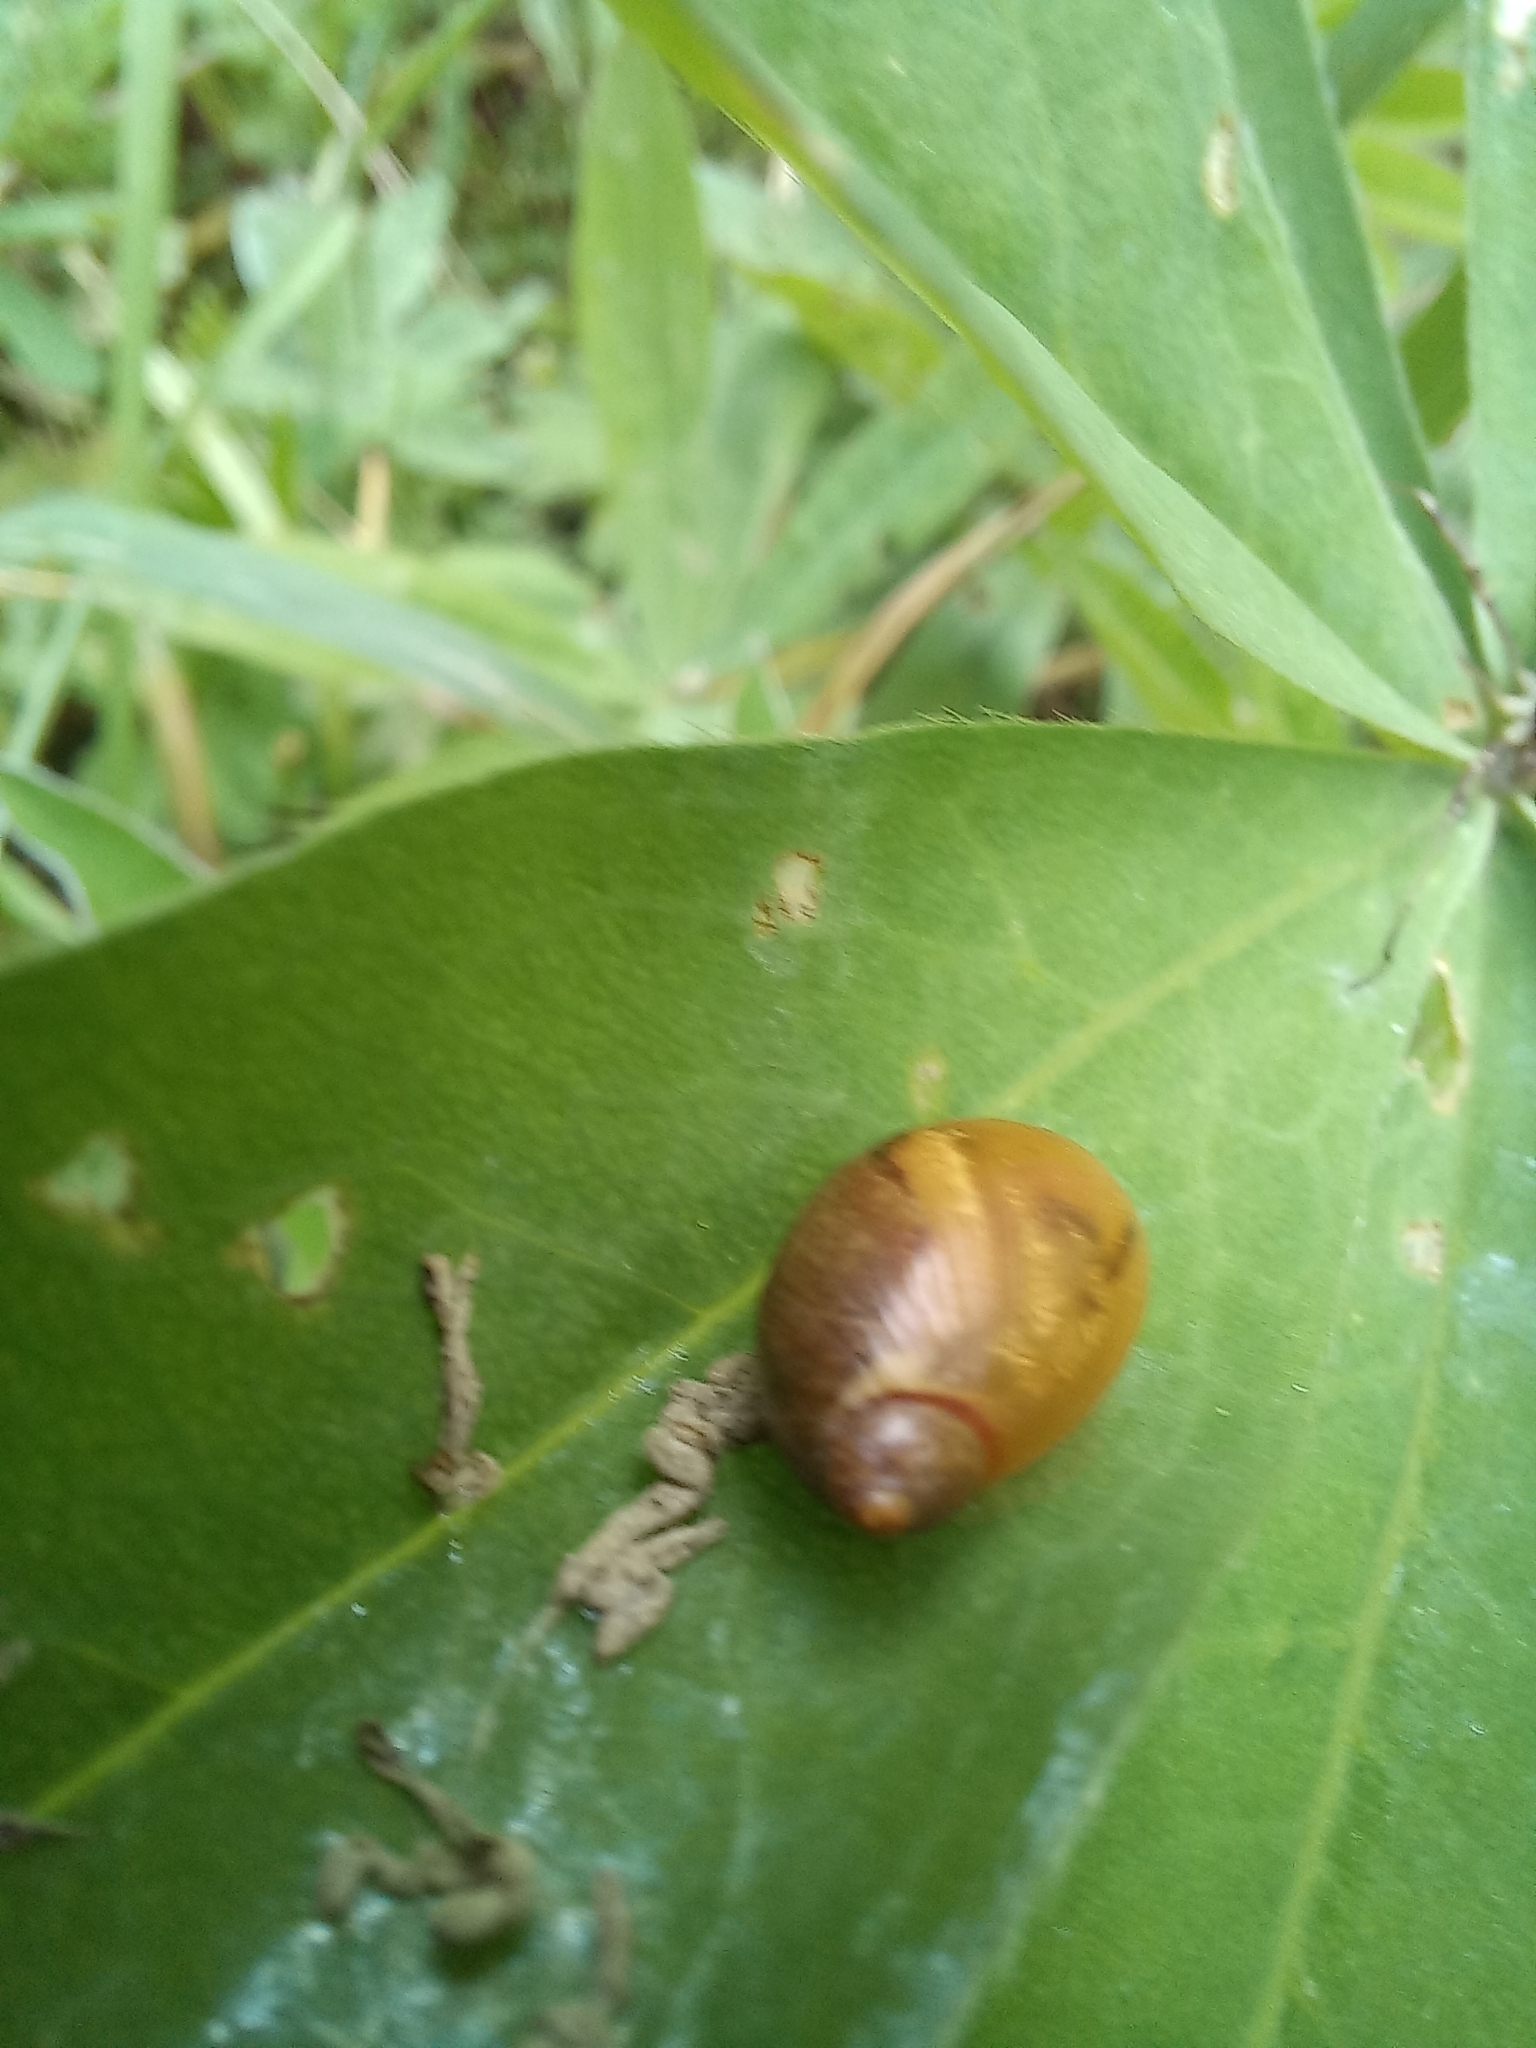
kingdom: Animalia
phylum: Mollusca
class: Gastropoda
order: Stylommatophora
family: Succineidae
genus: Succinea
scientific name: Succinea putris
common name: European ambersnail
